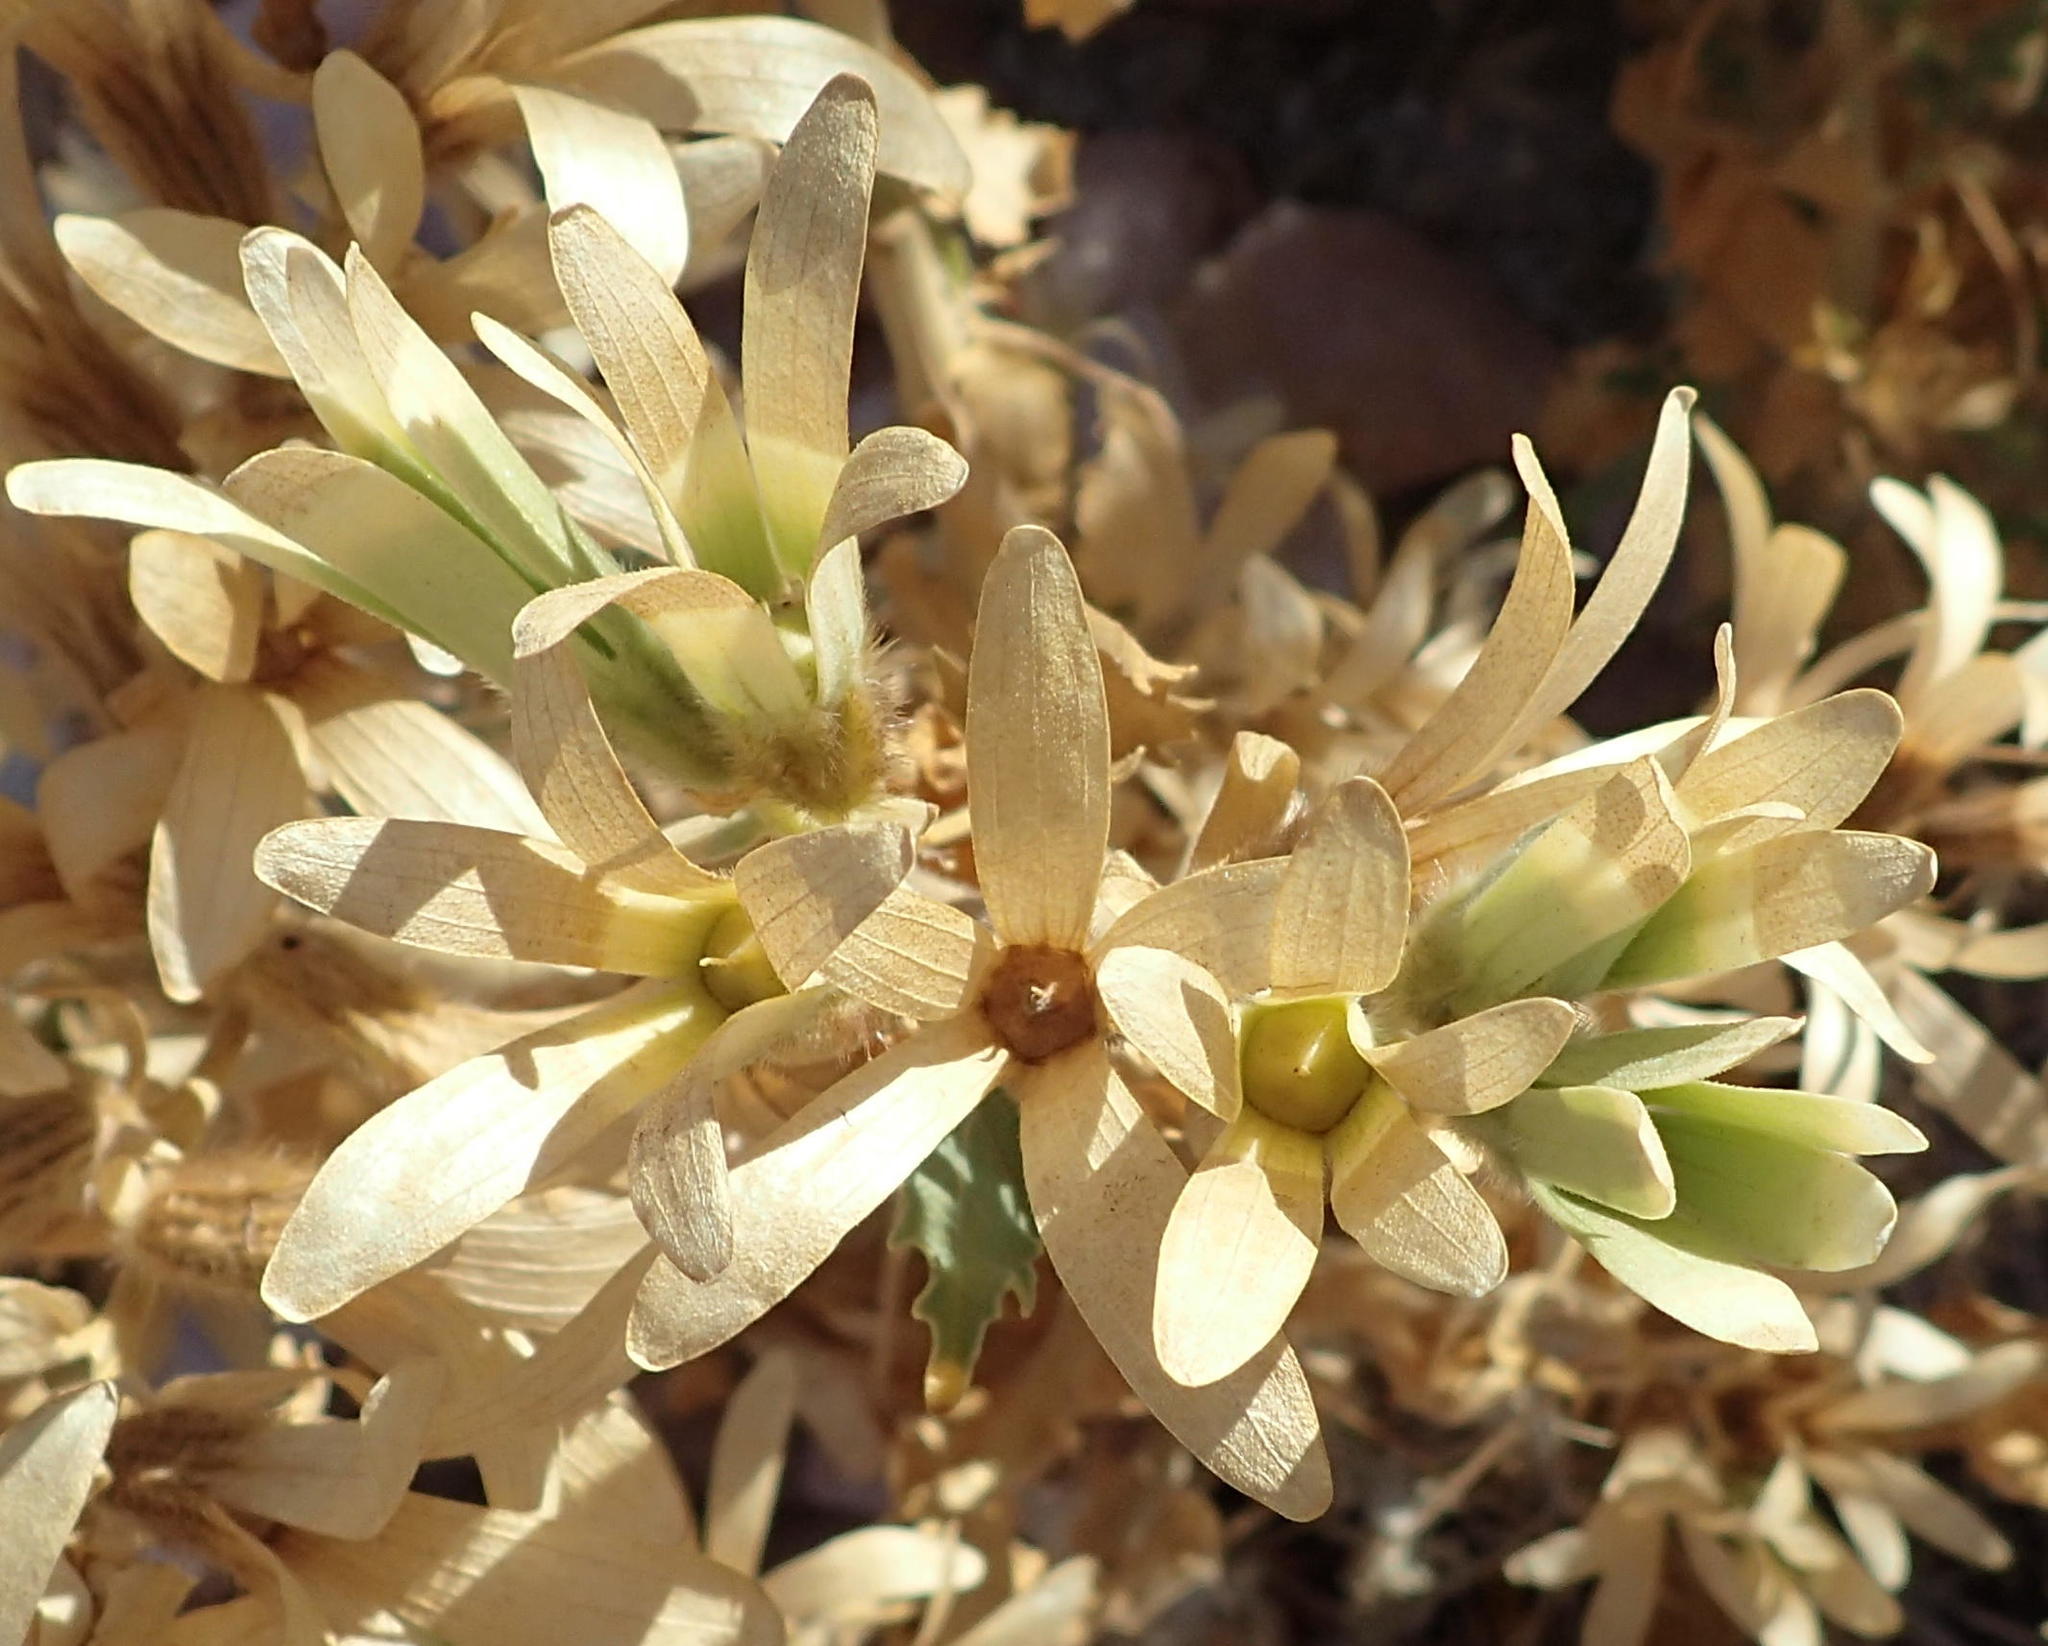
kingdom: Plantae
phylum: Tracheophyta
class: Magnoliopsida
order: Cornales
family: Loasaceae
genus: Kissenia
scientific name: Kissenia capensis
